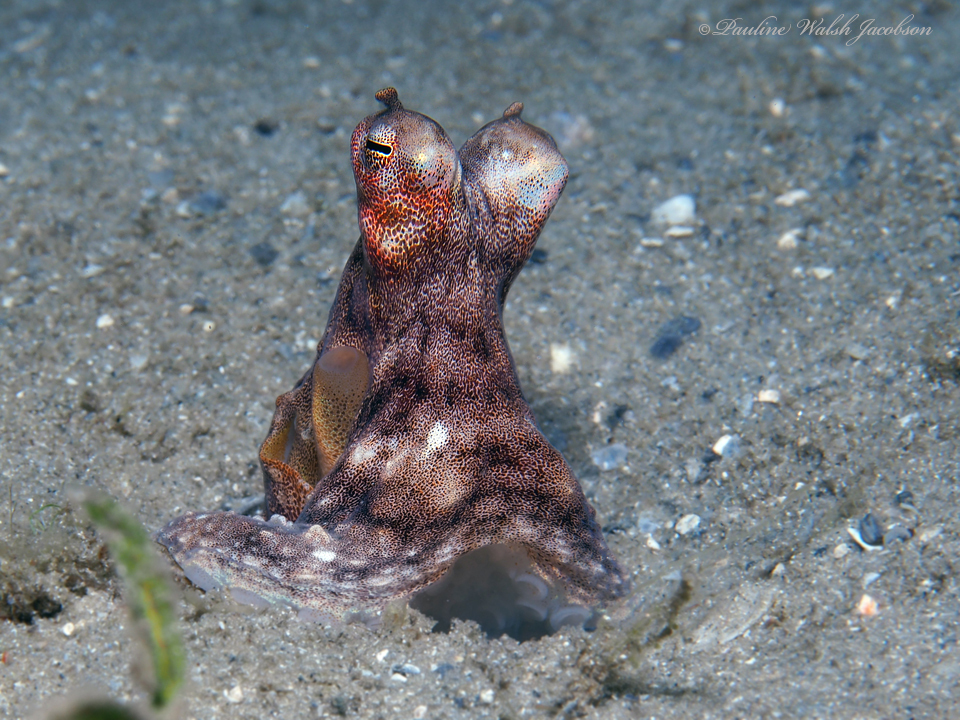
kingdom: Animalia
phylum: Mollusca
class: Cephalopoda
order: Octopoda
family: Octopodidae
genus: Macrotritopus
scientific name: Macrotritopus defilippi
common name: Lilliput longarm octopus
